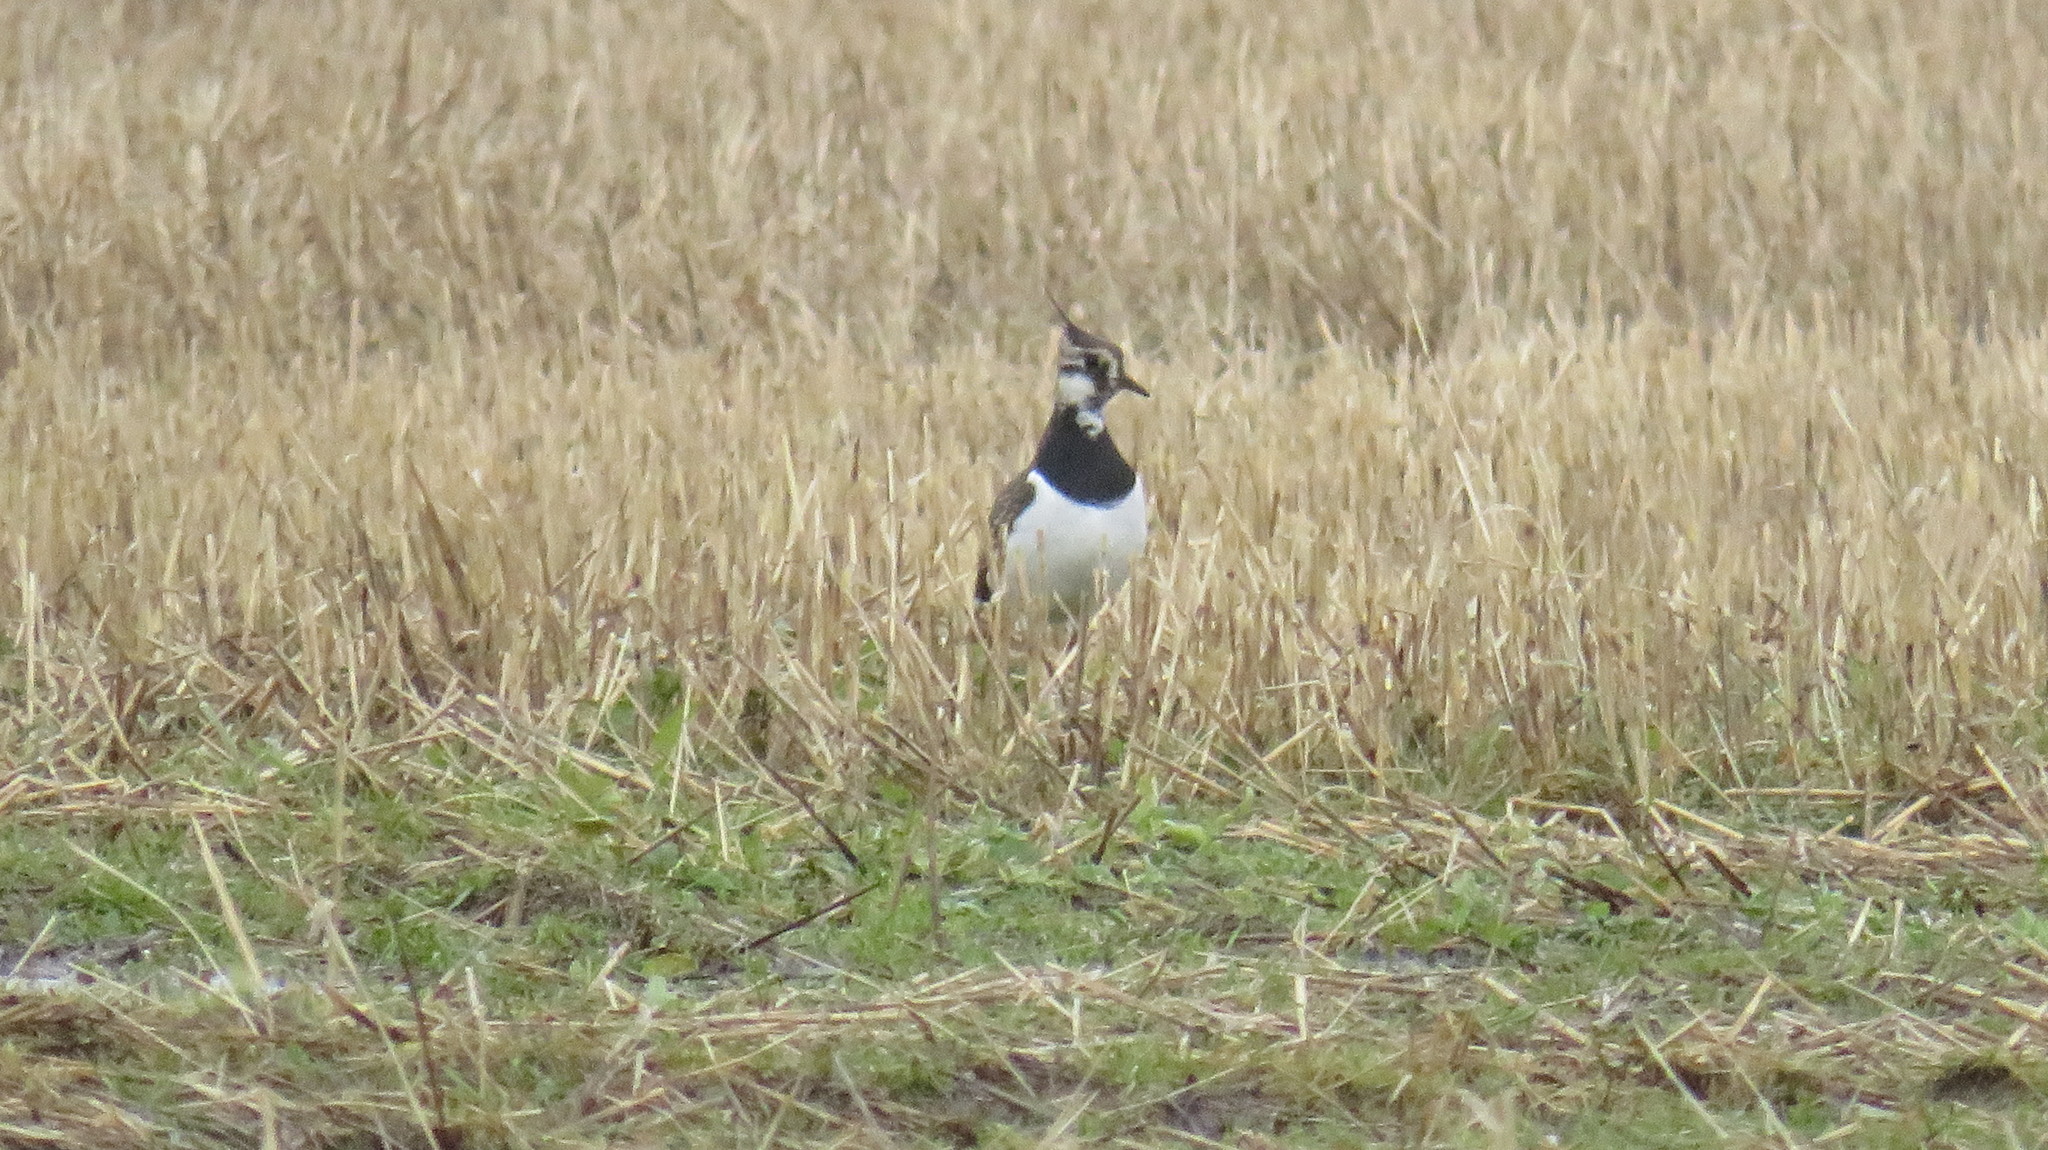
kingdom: Animalia
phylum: Chordata
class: Aves
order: Charadriiformes
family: Charadriidae
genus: Vanellus
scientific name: Vanellus vanellus
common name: Northern lapwing
